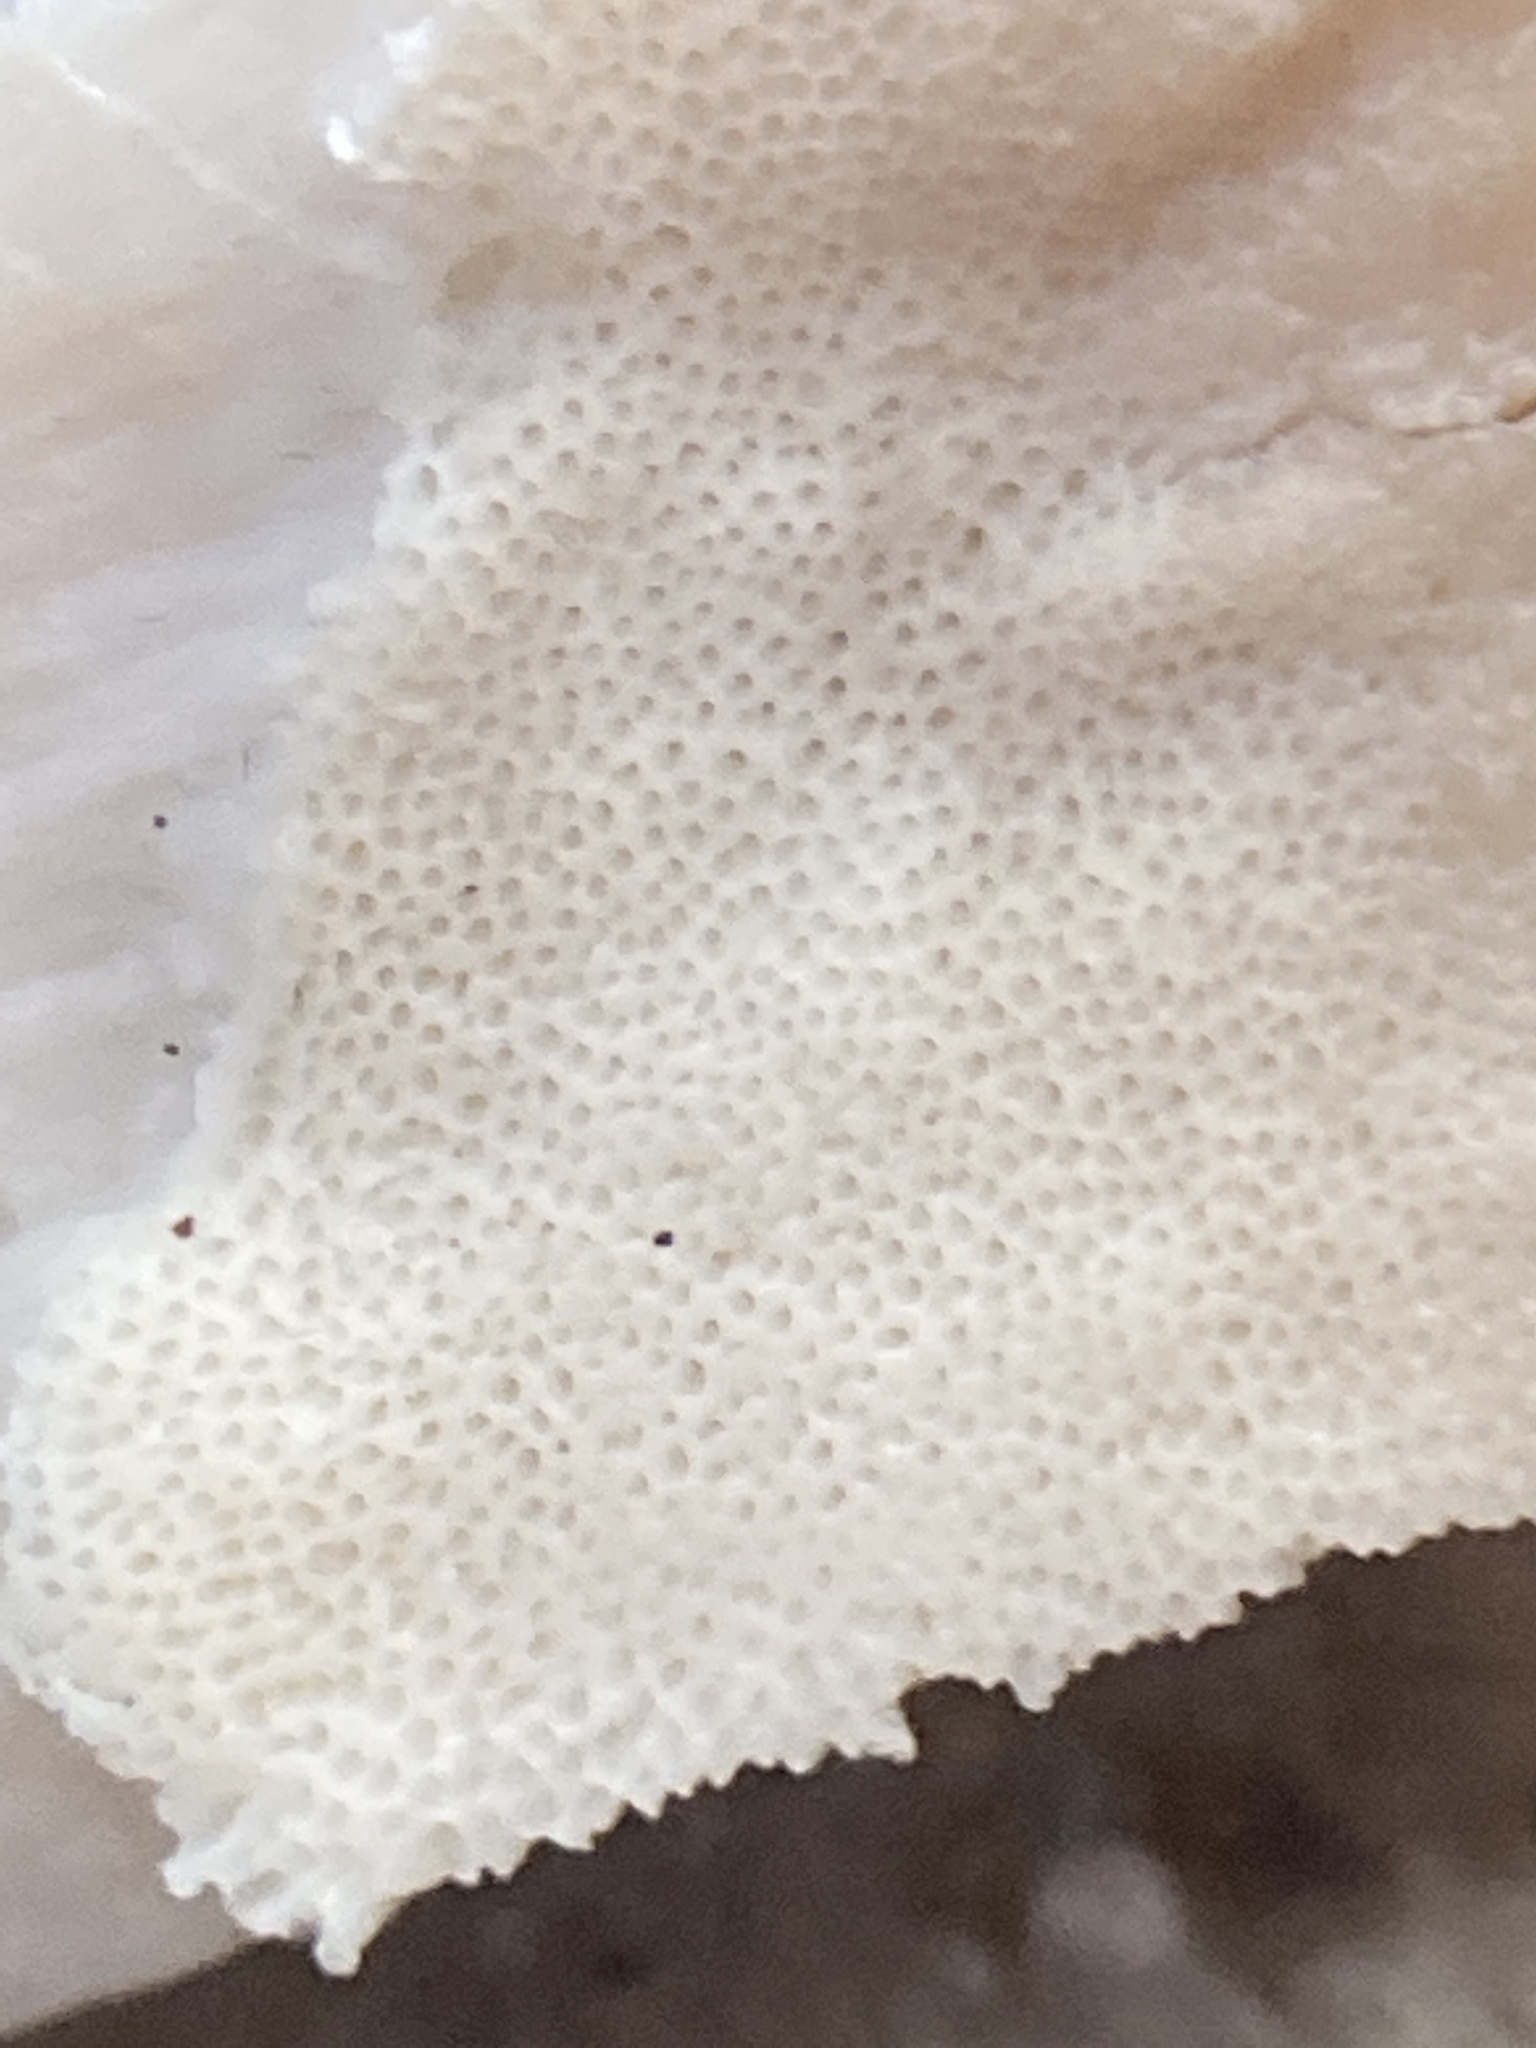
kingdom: Fungi
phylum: Basidiomycota
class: Agaricomycetes
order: Polyporales
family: Fomitopsidaceae
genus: Niveoporofomes
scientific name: Niveoporofomes spraguei
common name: Green cheese polypore
